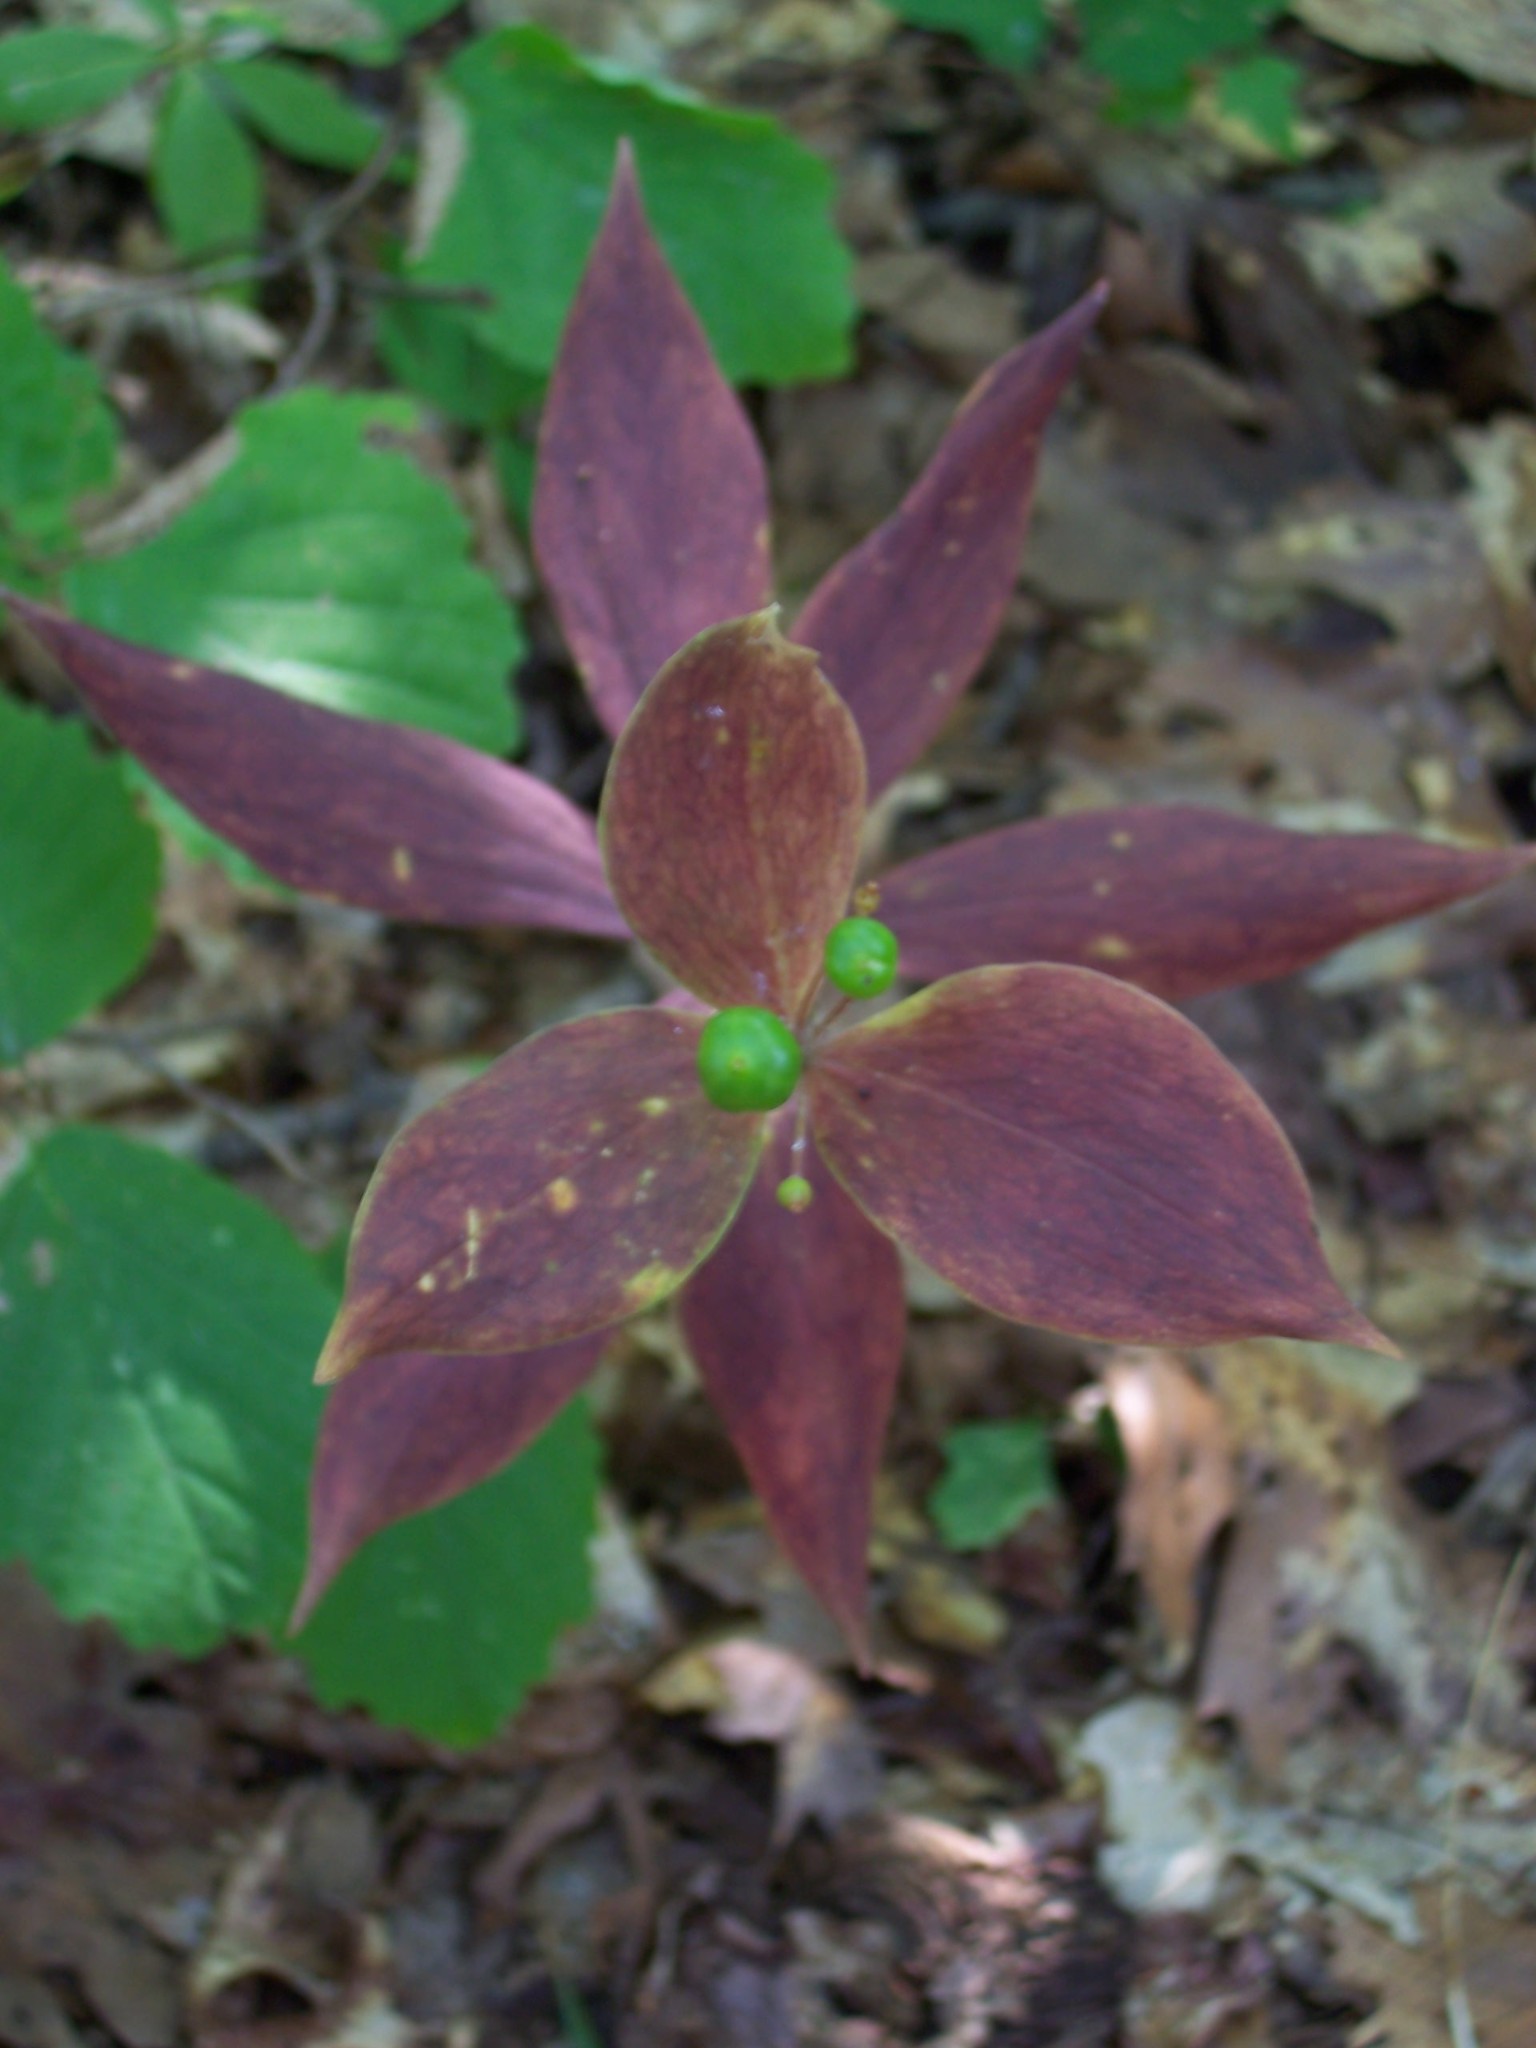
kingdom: Plantae
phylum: Tracheophyta
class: Liliopsida
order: Liliales
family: Liliaceae
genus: Medeola
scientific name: Medeola virginiana
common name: Indian cucumber-root
